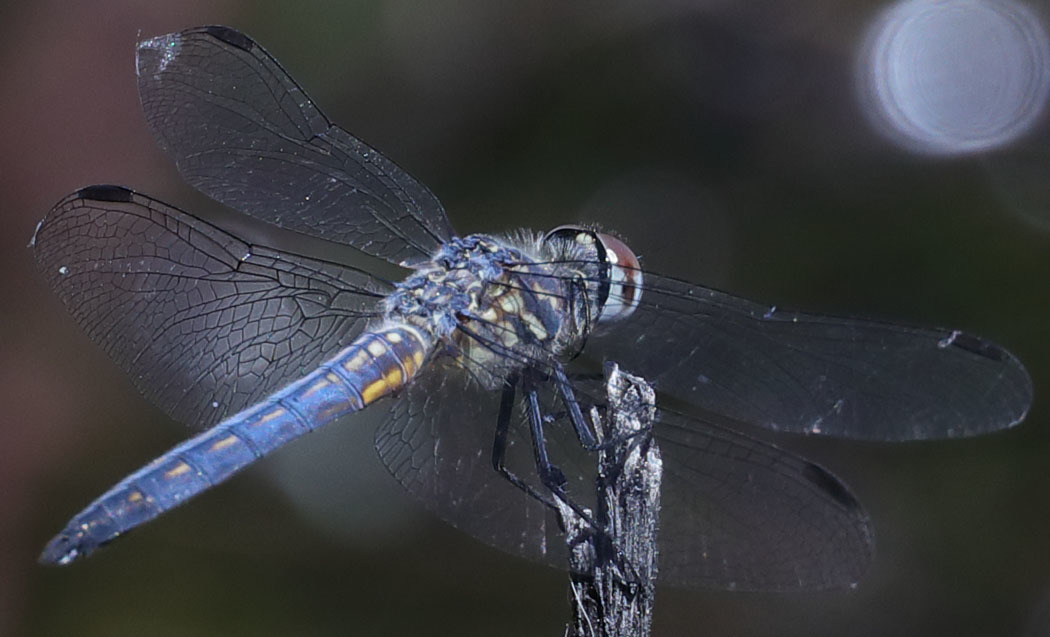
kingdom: Animalia
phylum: Arthropoda
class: Insecta
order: Odonata
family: Libellulidae
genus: Pachydiplax
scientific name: Pachydiplax longipennis
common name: Blue dasher
